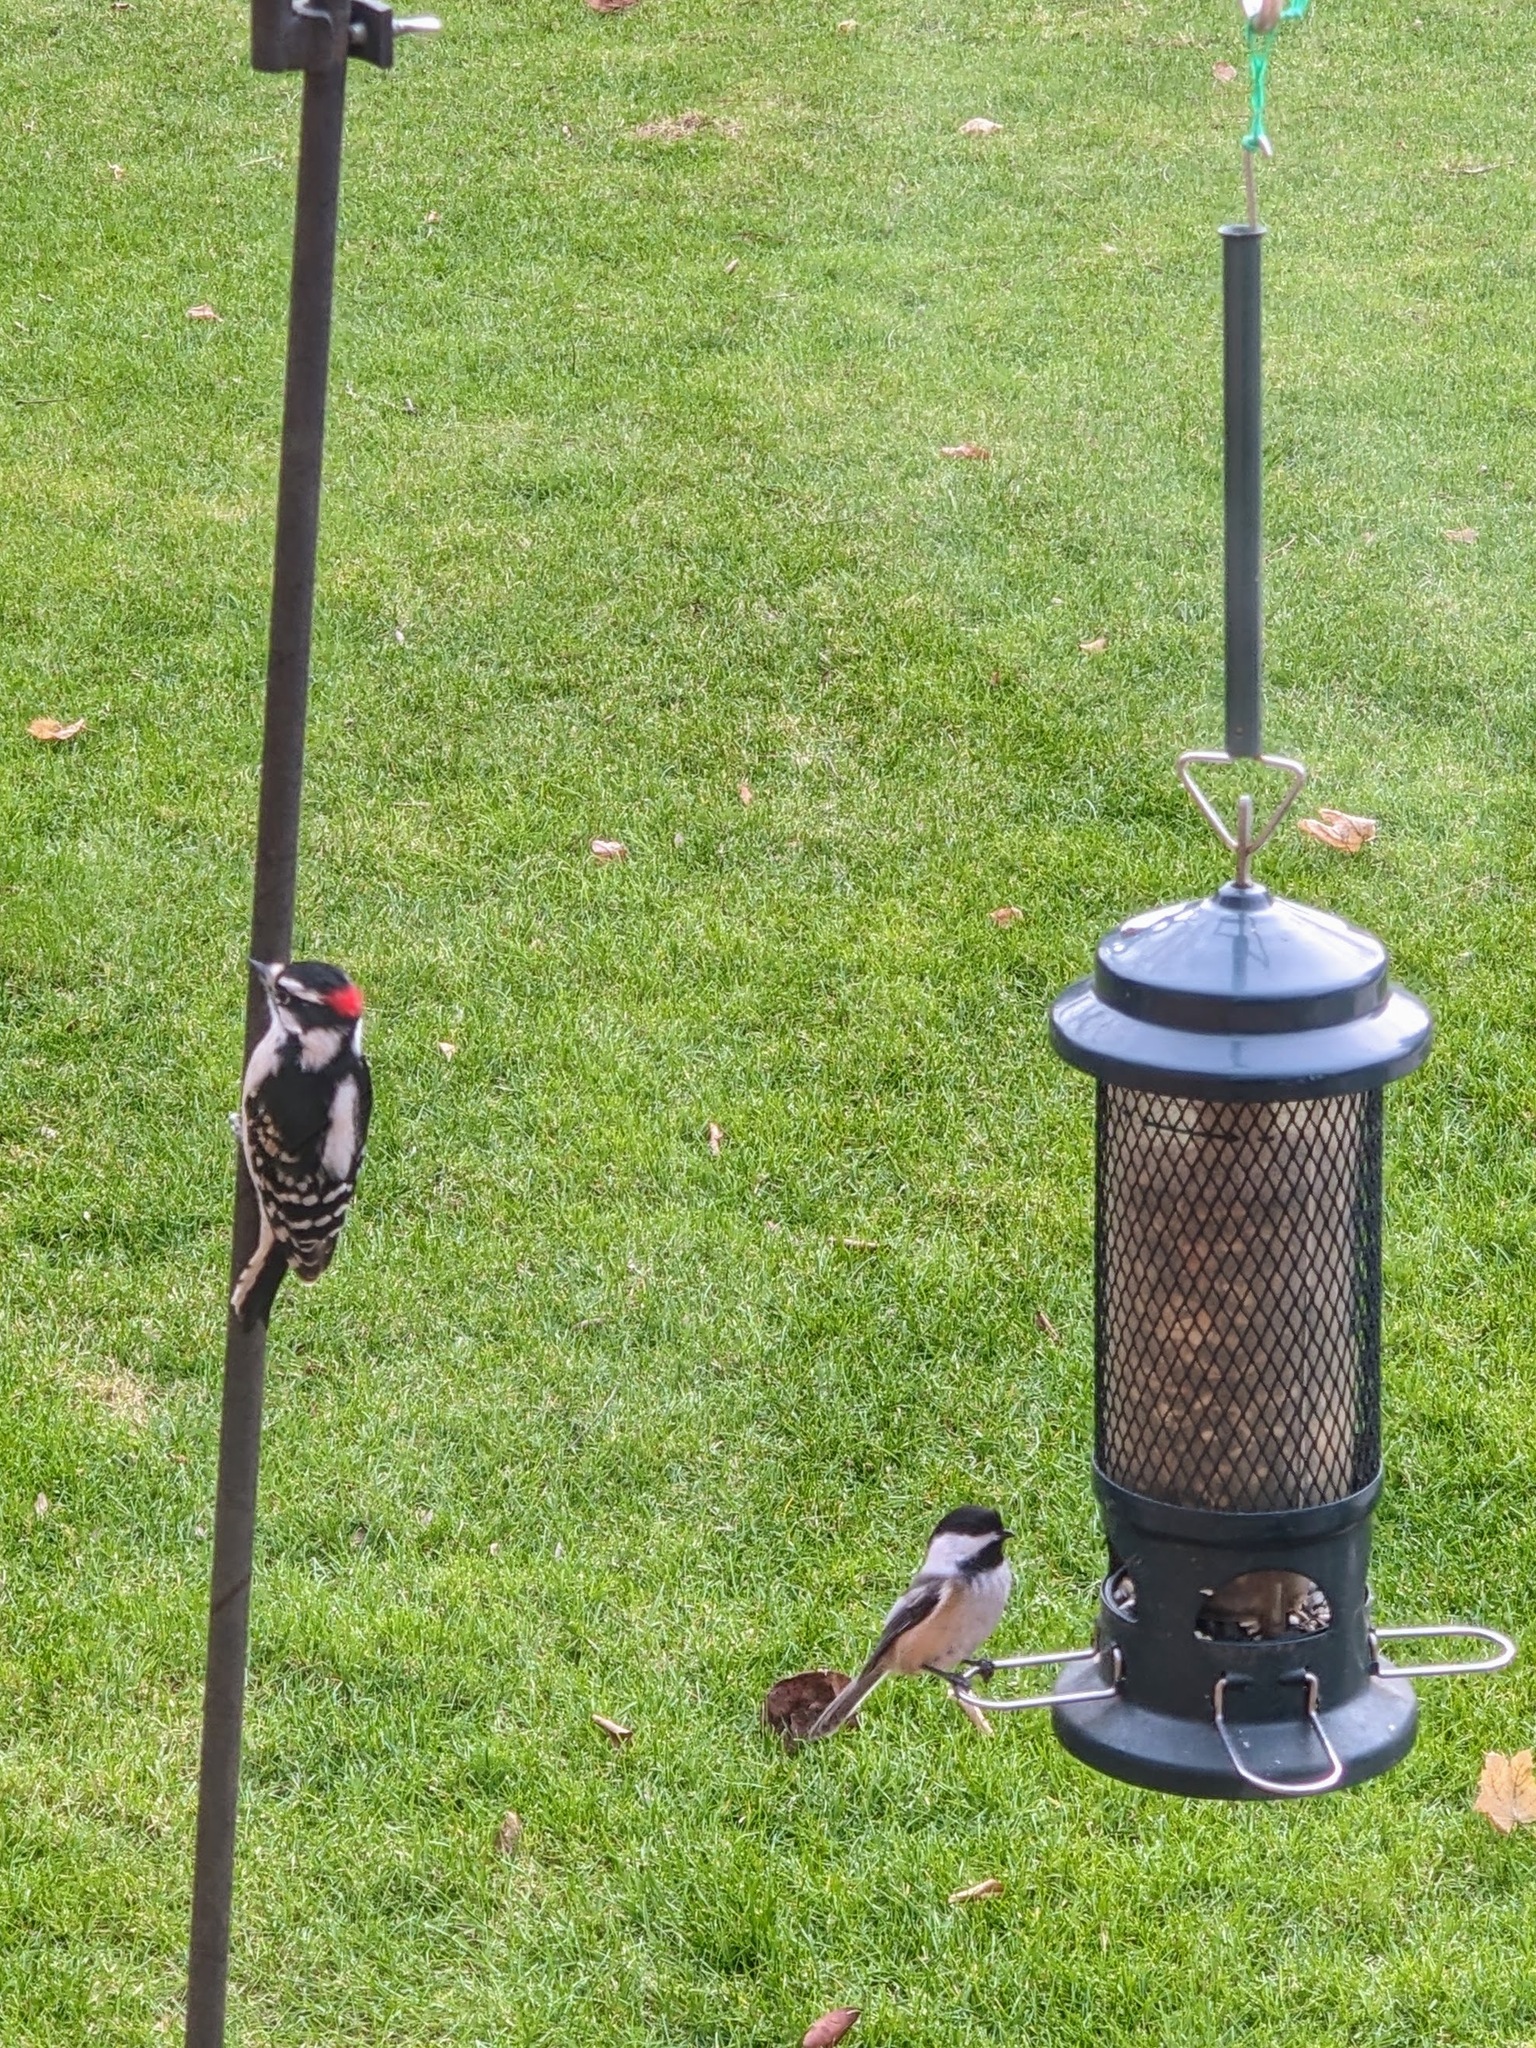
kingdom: Animalia
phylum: Chordata
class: Aves
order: Piciformes
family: Picidae
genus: Dryobates
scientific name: Dryobates pubescens
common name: Downy woodpecker
